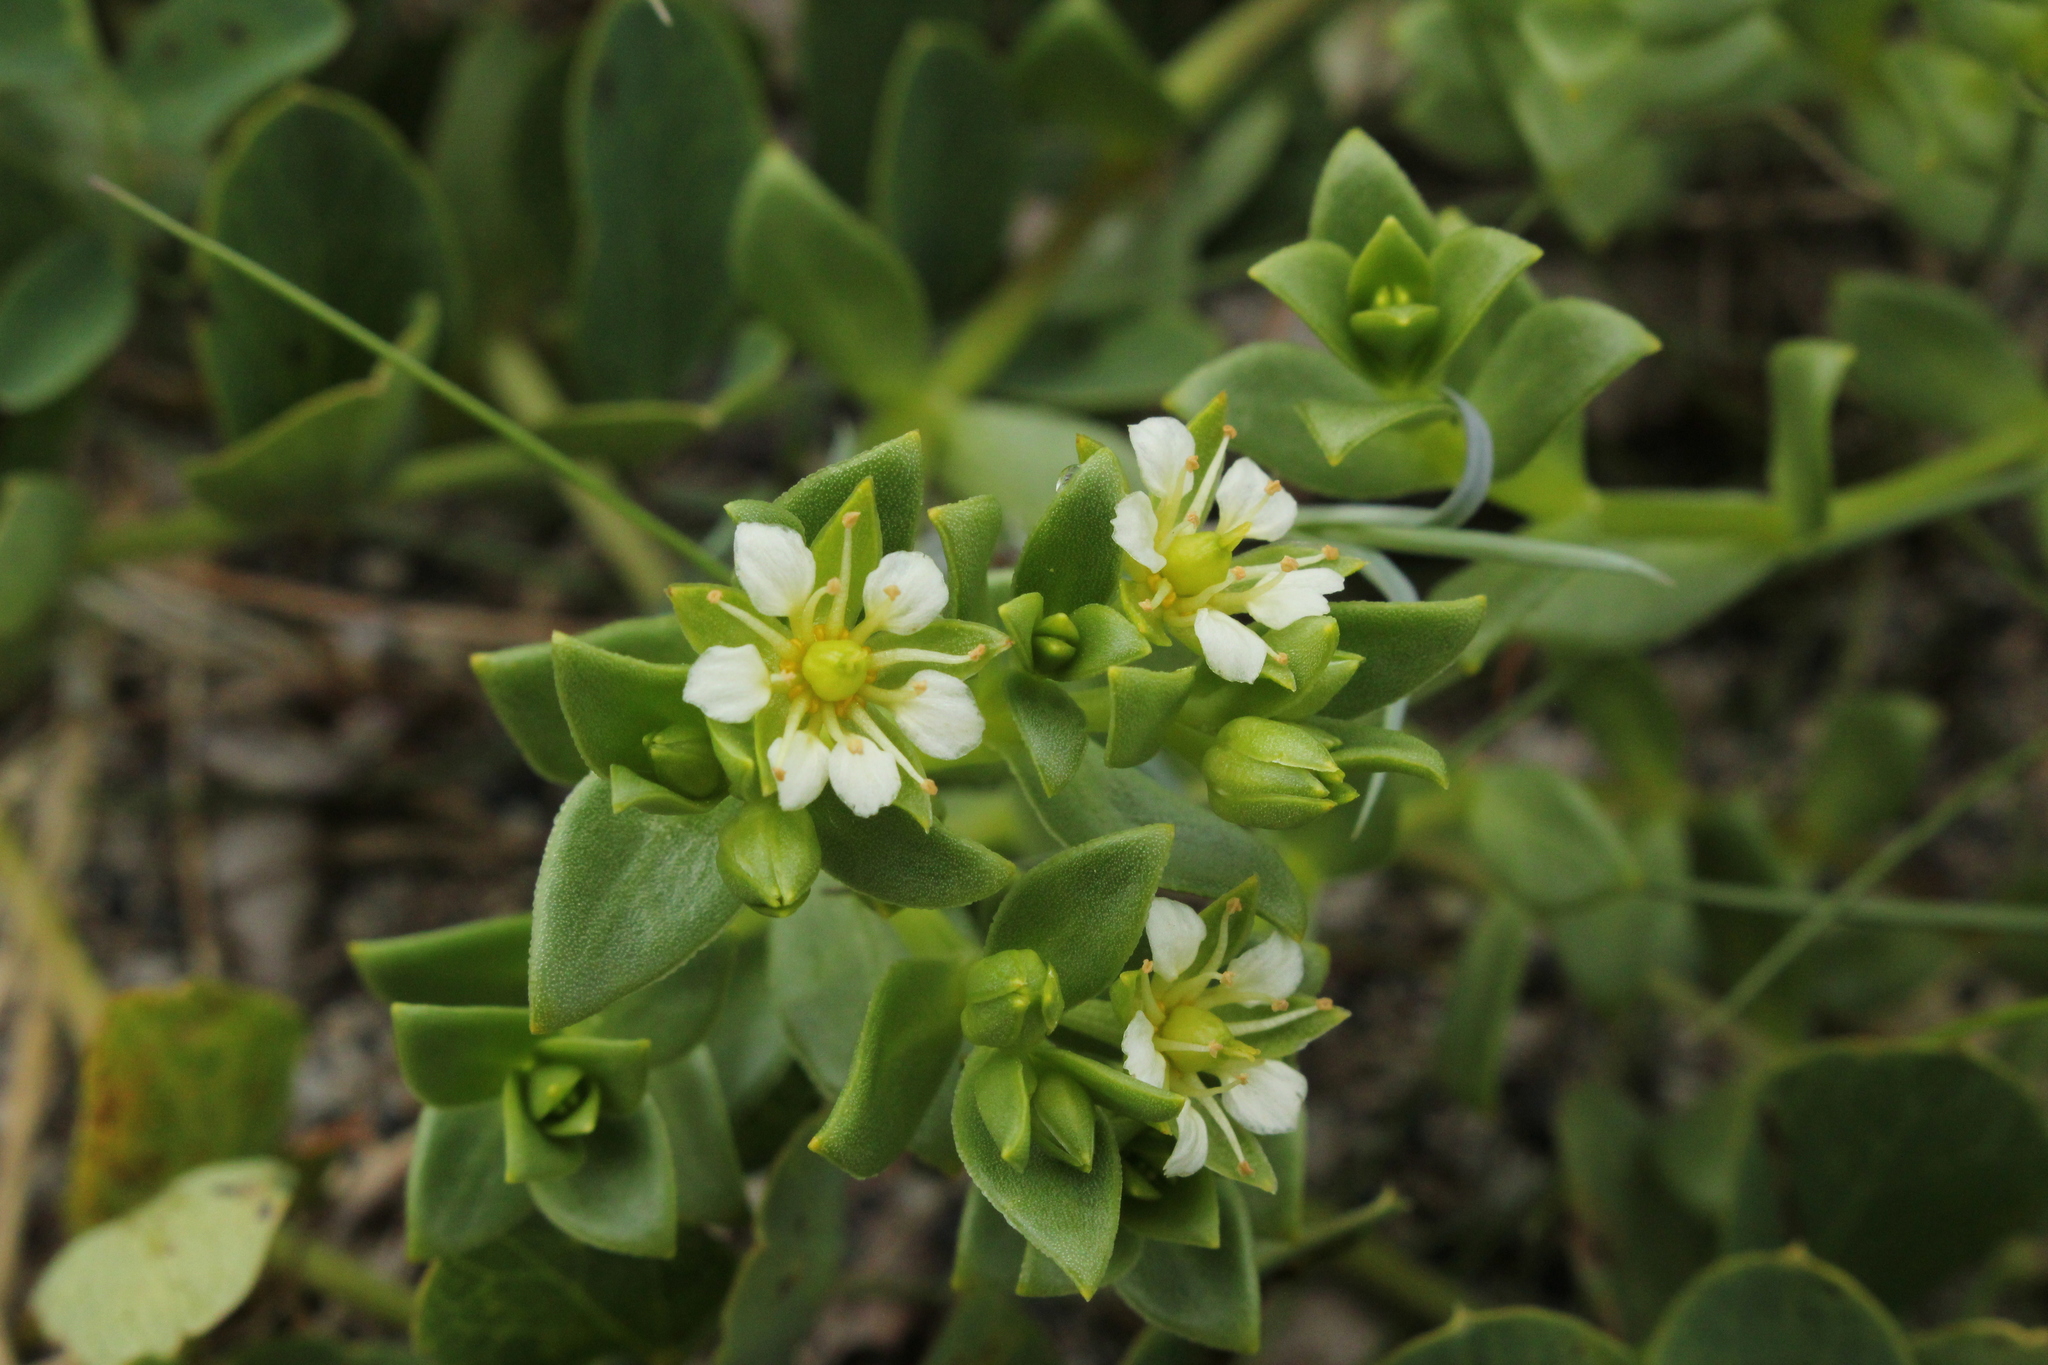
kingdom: Plantae
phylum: Tracheophyta
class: Magnoliopsida
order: Caryophyllales
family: Caryophyllaceae
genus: Honckenya
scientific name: Honckenya peploides
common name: Sea sandwort
